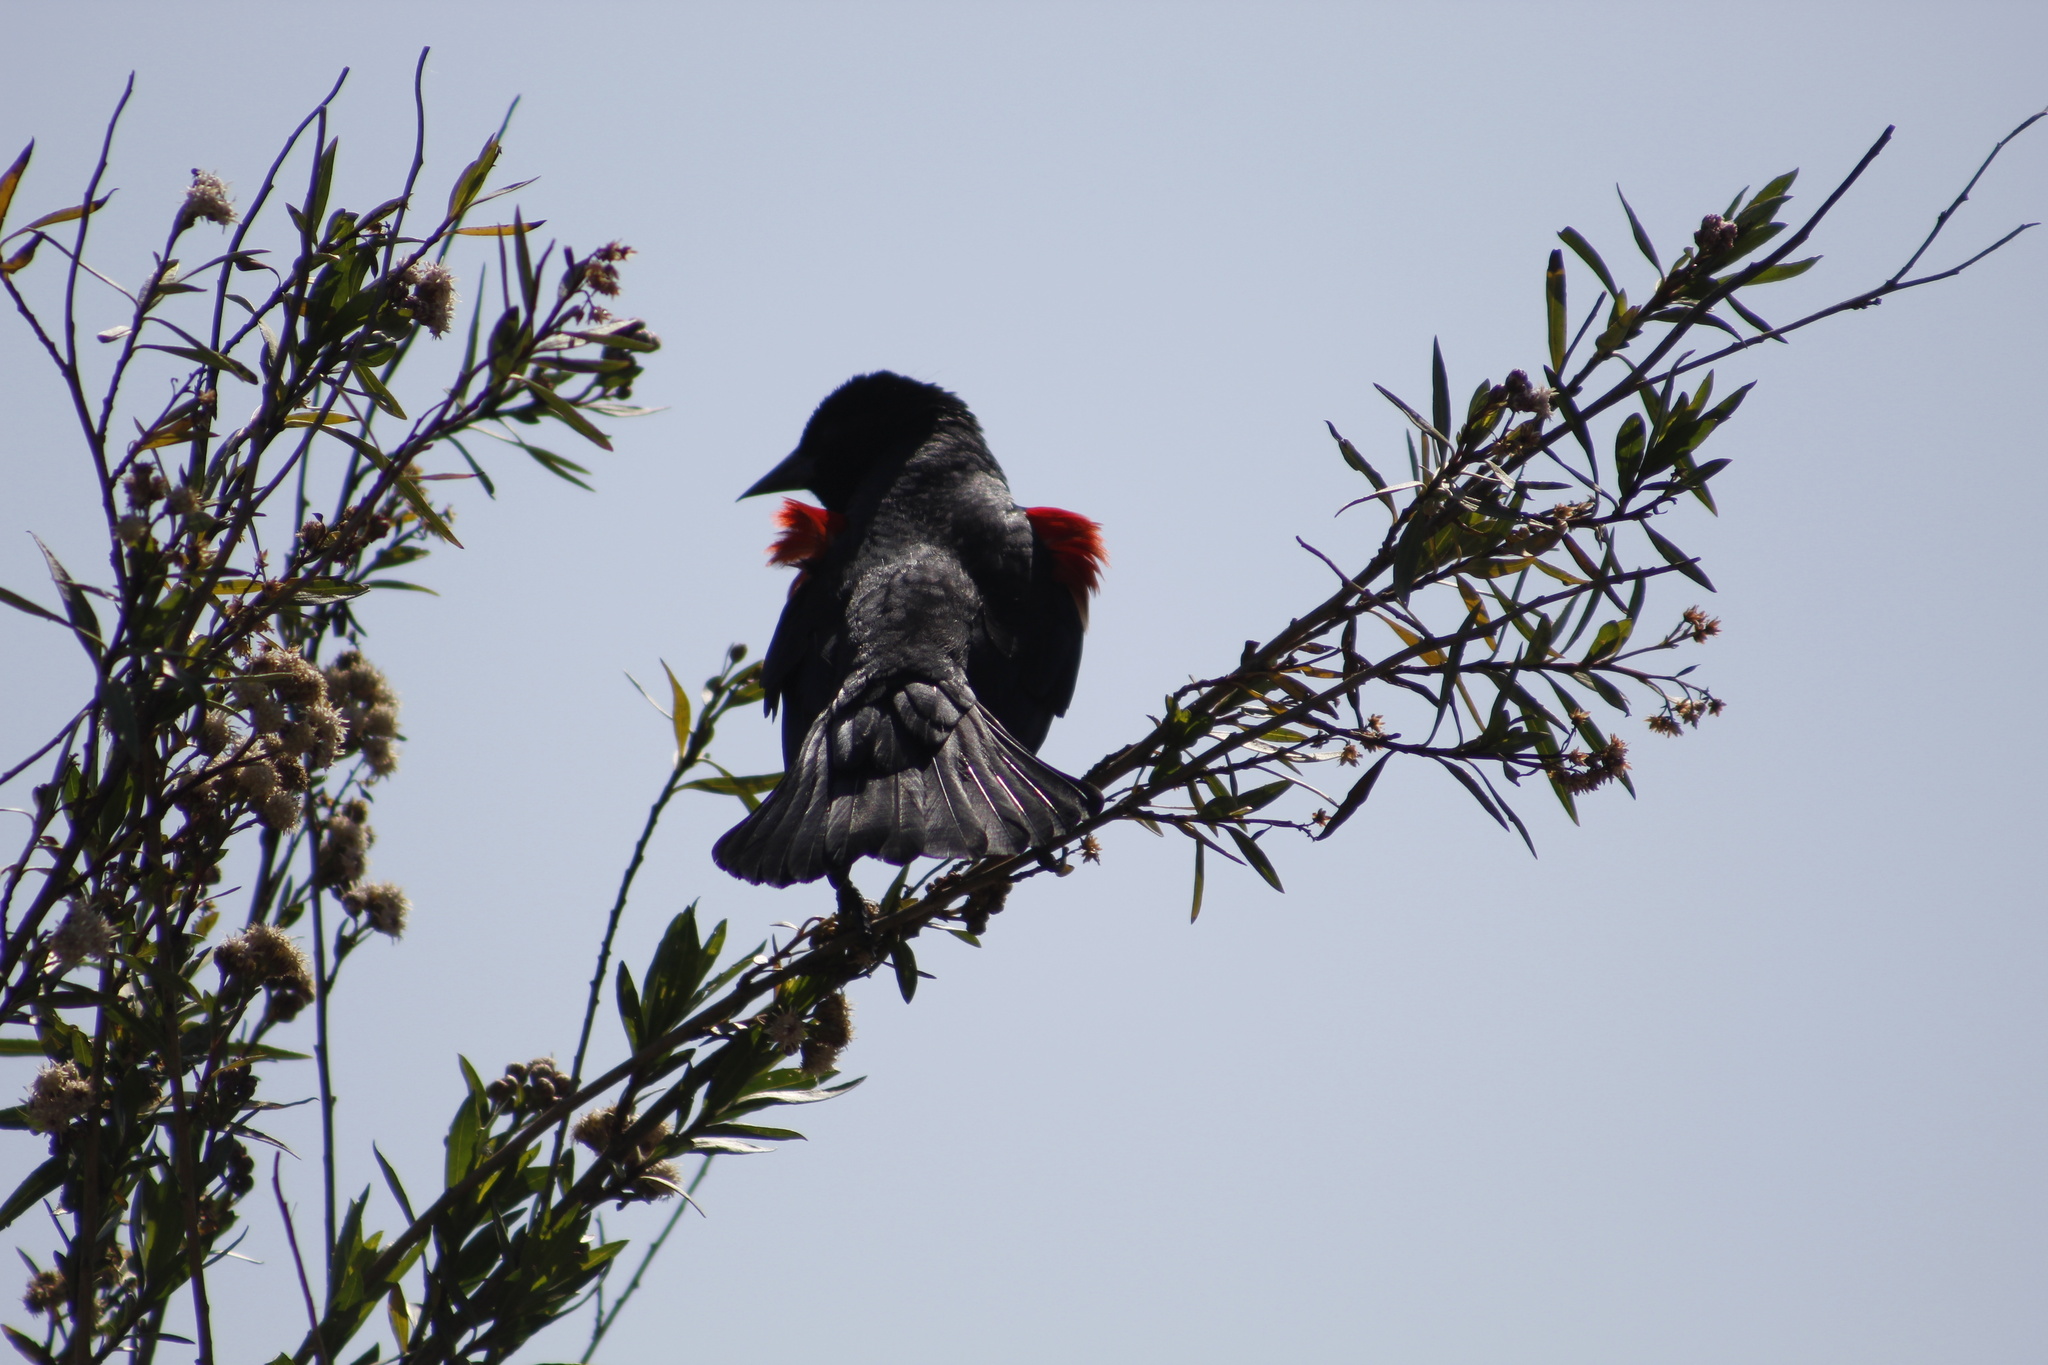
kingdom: Animalia
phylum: Chordata
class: Aves
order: Passeriformes
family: Icteridae
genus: Agelaius
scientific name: Agelaius phoeniceus
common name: Red-winged blackbird
